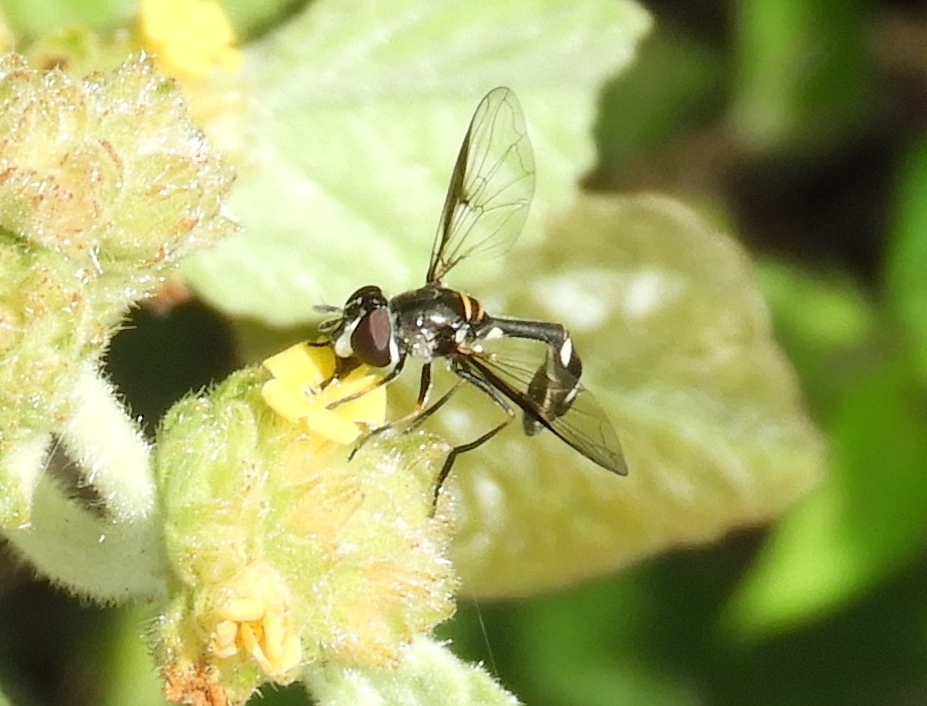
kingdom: Animalia
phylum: Arthropoda
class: Insecta
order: Diptera
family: Syrphidae
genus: Dioprosopa
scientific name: Dioprosopa clavatus
